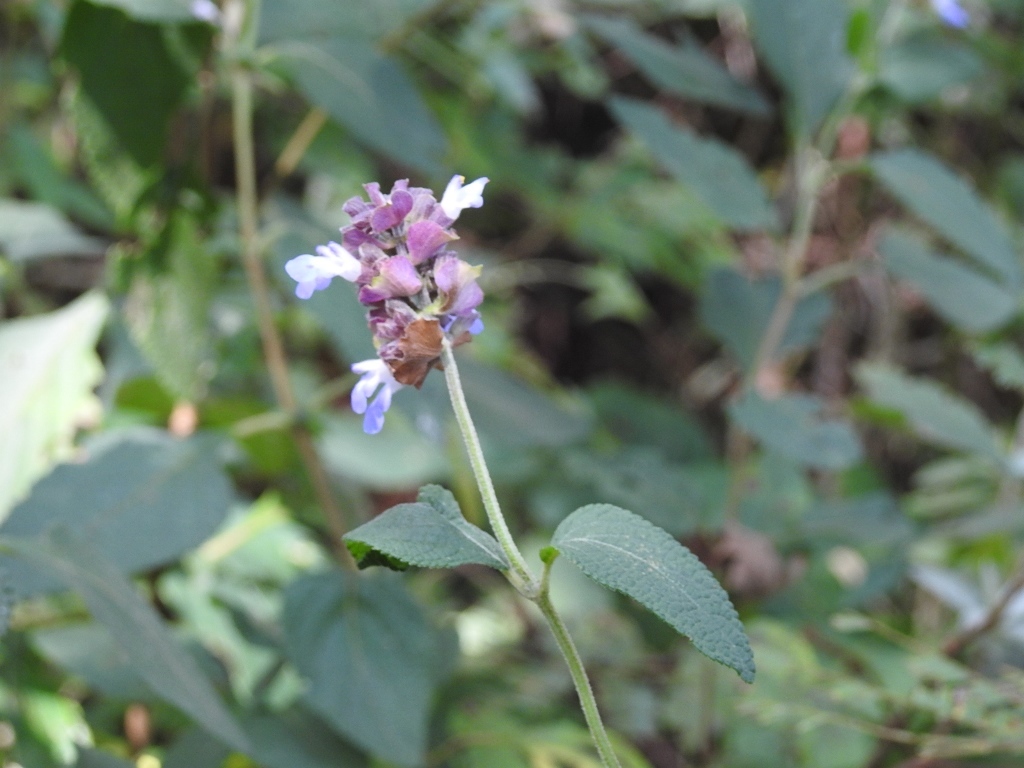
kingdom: Plantae
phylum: Tracheophyta
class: Magnoliopsida
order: Lamiales
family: Lamiaceae
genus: Salvia
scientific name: Salvia mocinoi
